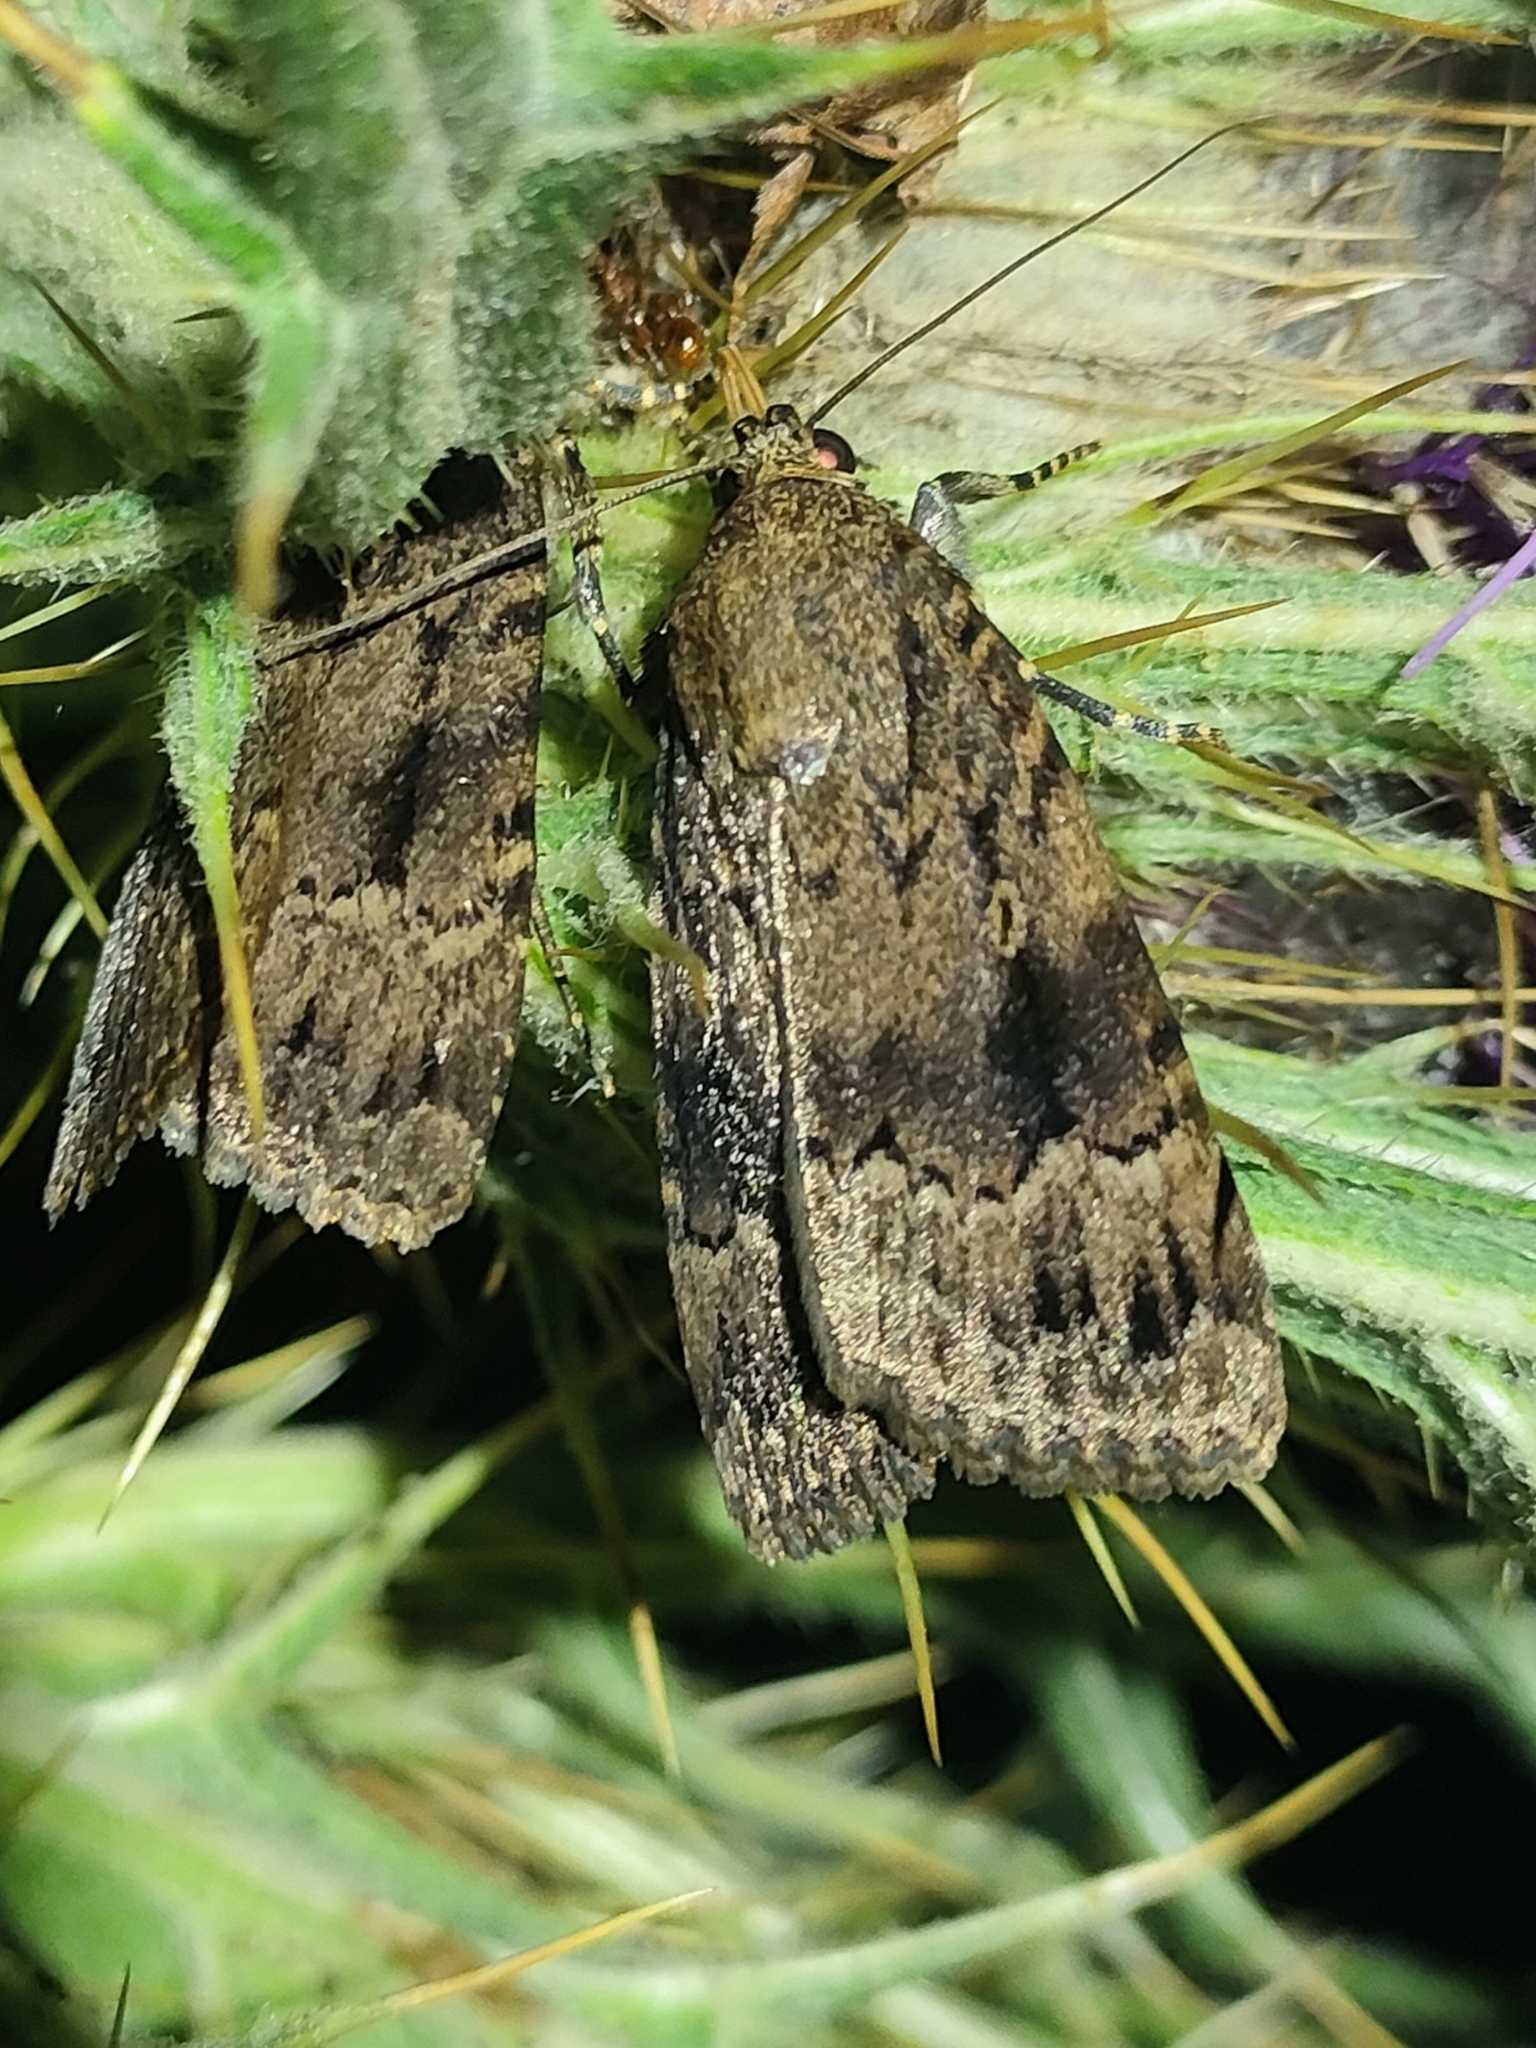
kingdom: Animalia
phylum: Arthropoda
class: Insecta
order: Lepidoptera
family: Noctuidae
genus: Amphipyra
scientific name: Amphipyra pyramidea
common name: Copper underwing
